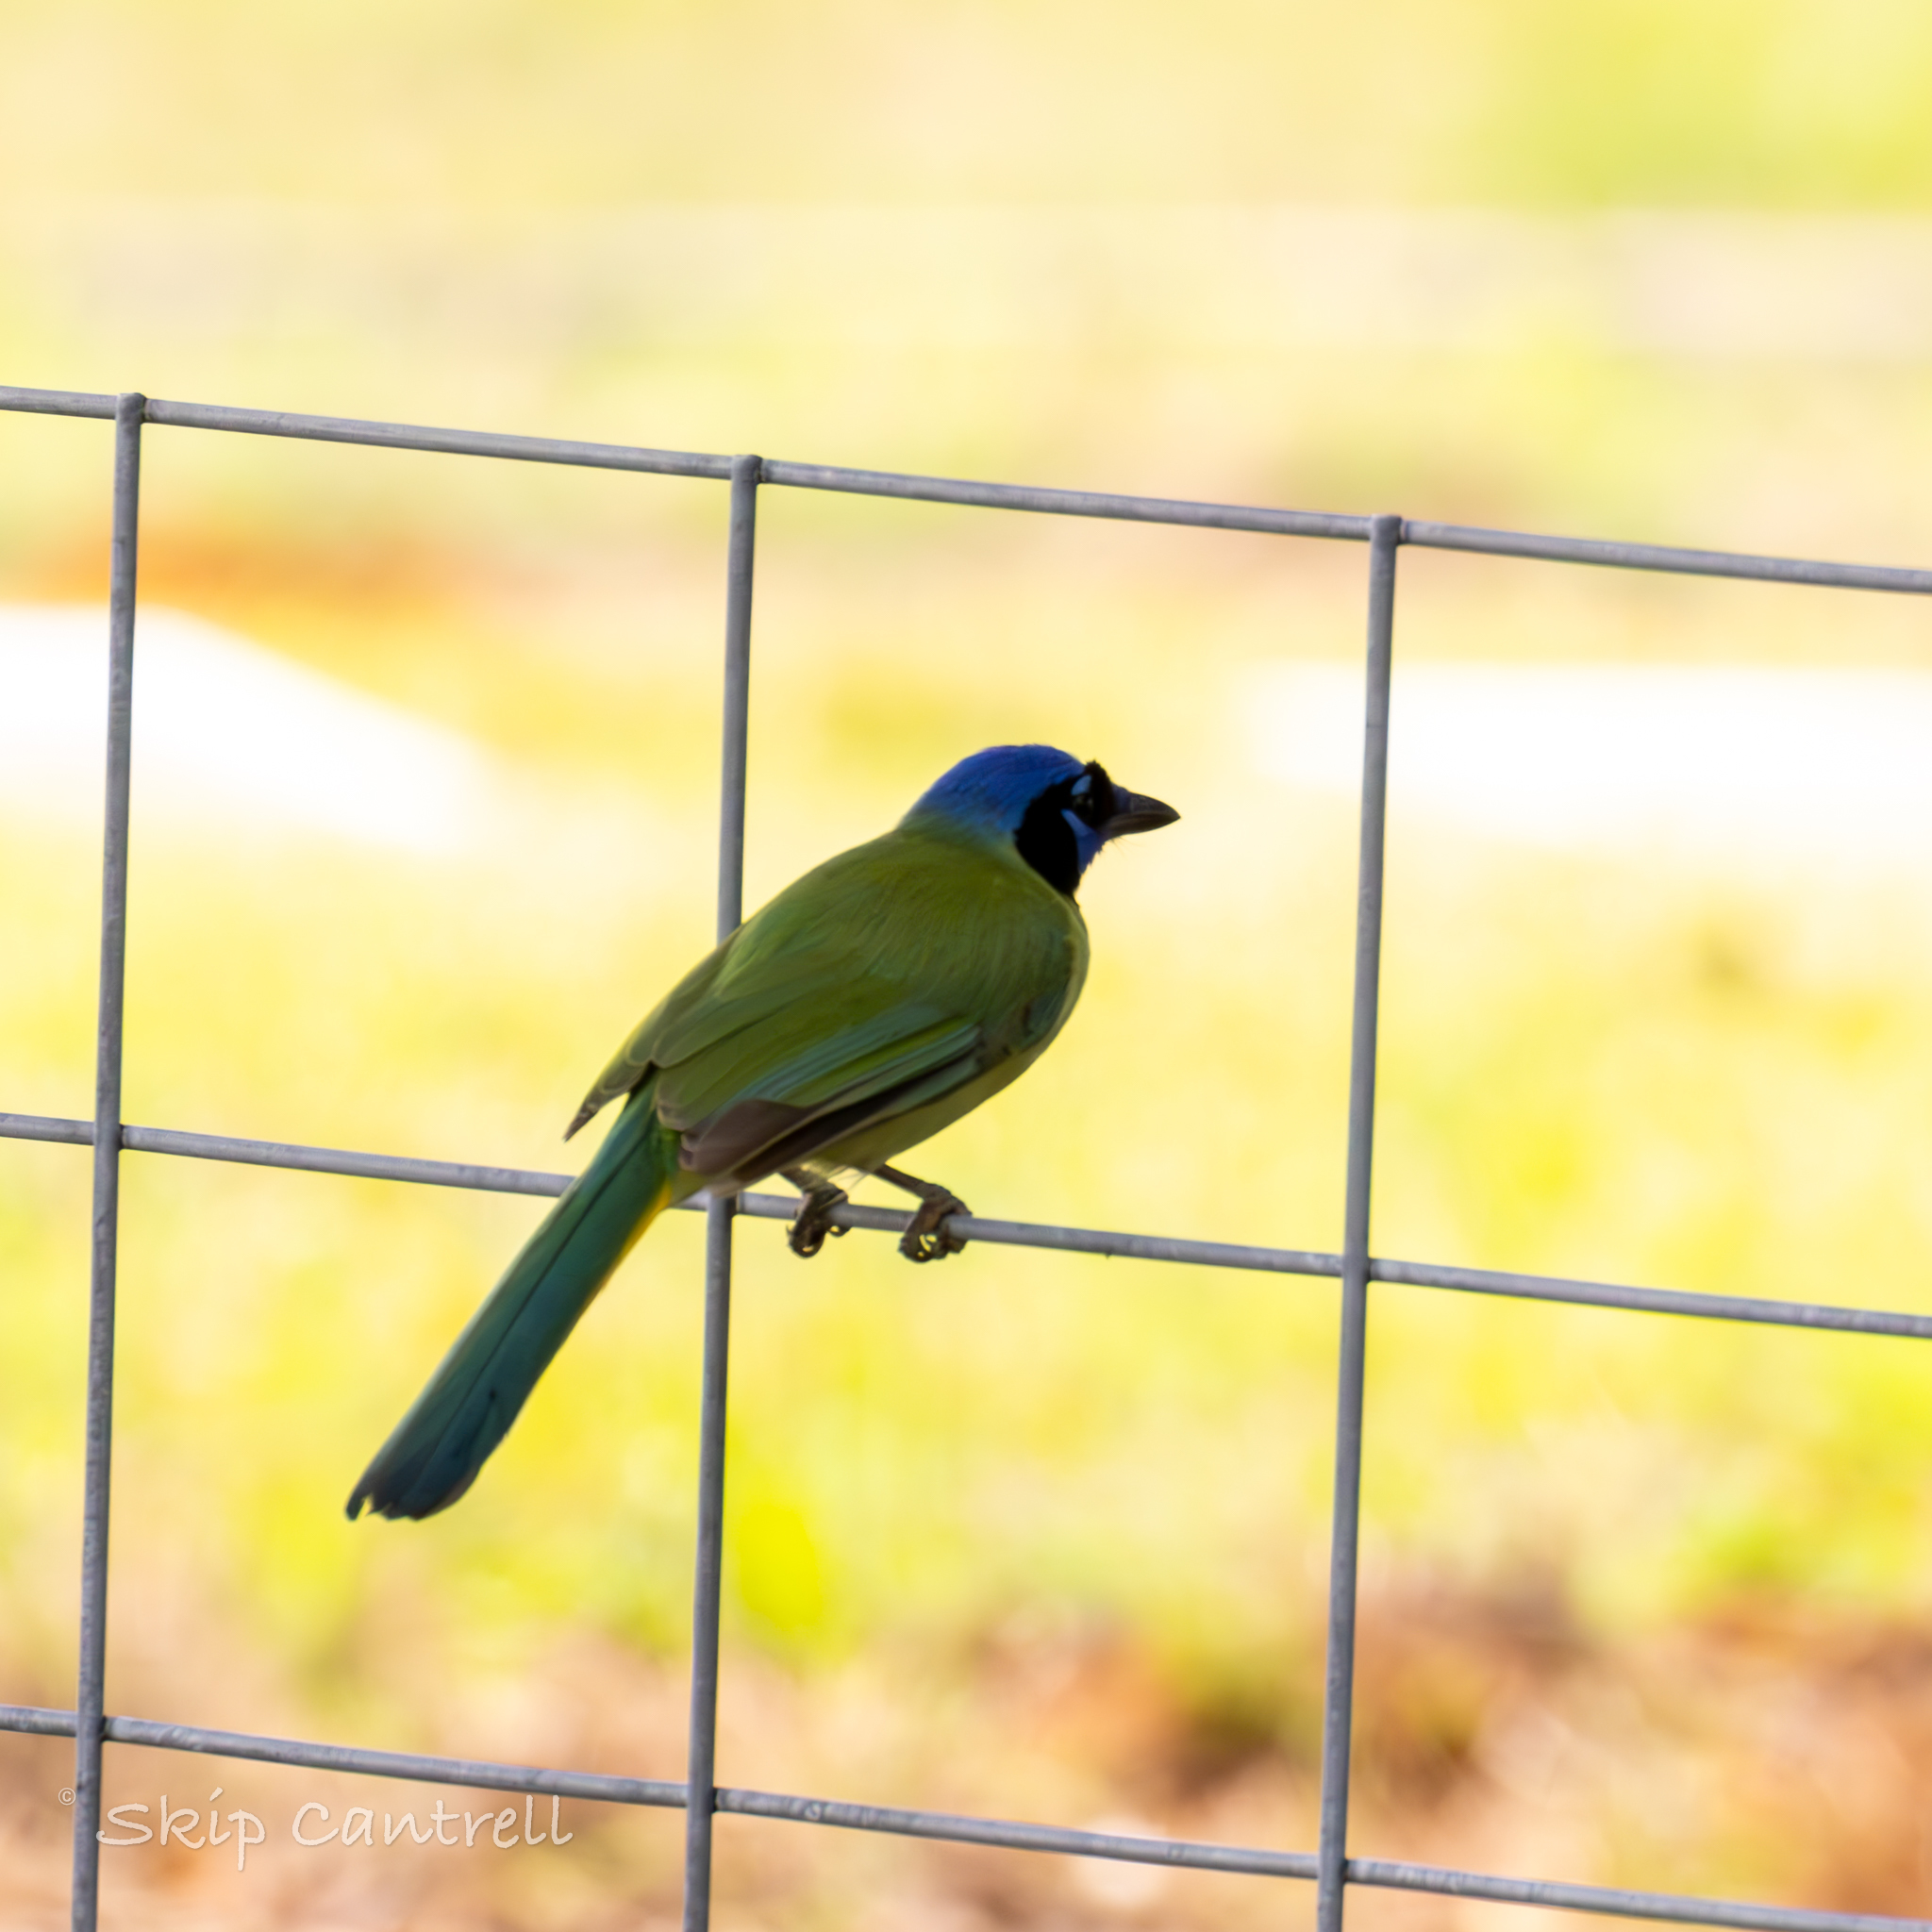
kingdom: Animalia
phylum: Chordata
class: Aves
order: Passeriformes
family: Corvidae
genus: Cyanocorax
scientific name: Cyanocorax yncas
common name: Green jay
